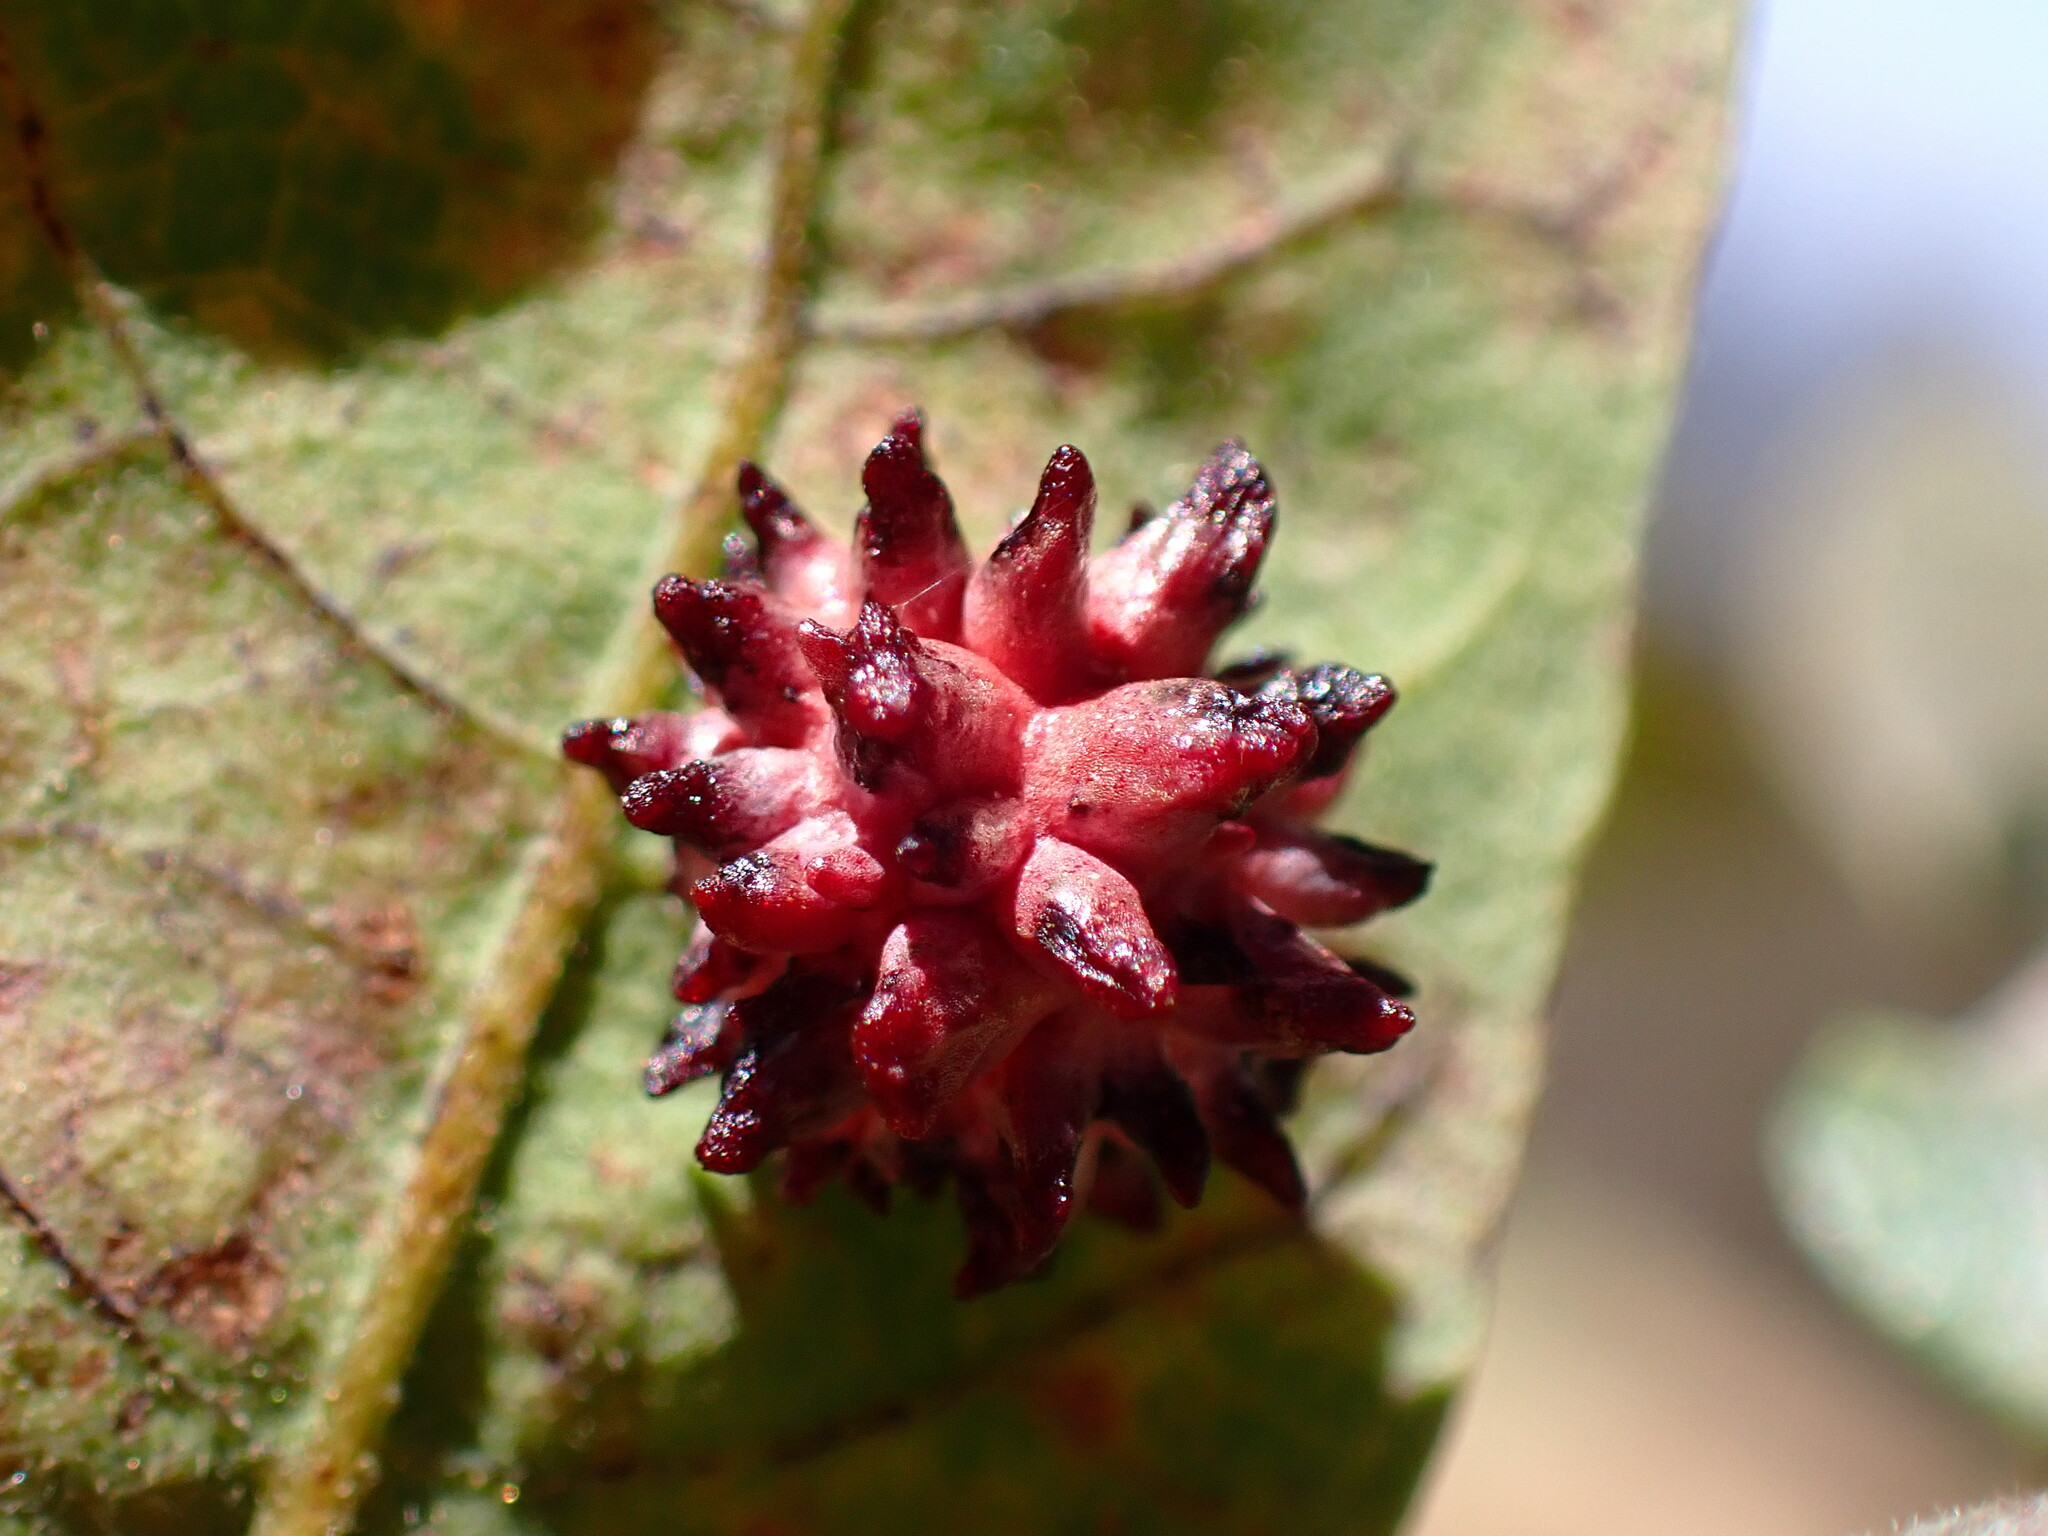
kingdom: Animalia
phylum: Arthropoda
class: Insecta
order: Hymenoptera
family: Cynipidae
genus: Cynips
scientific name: Cynips
